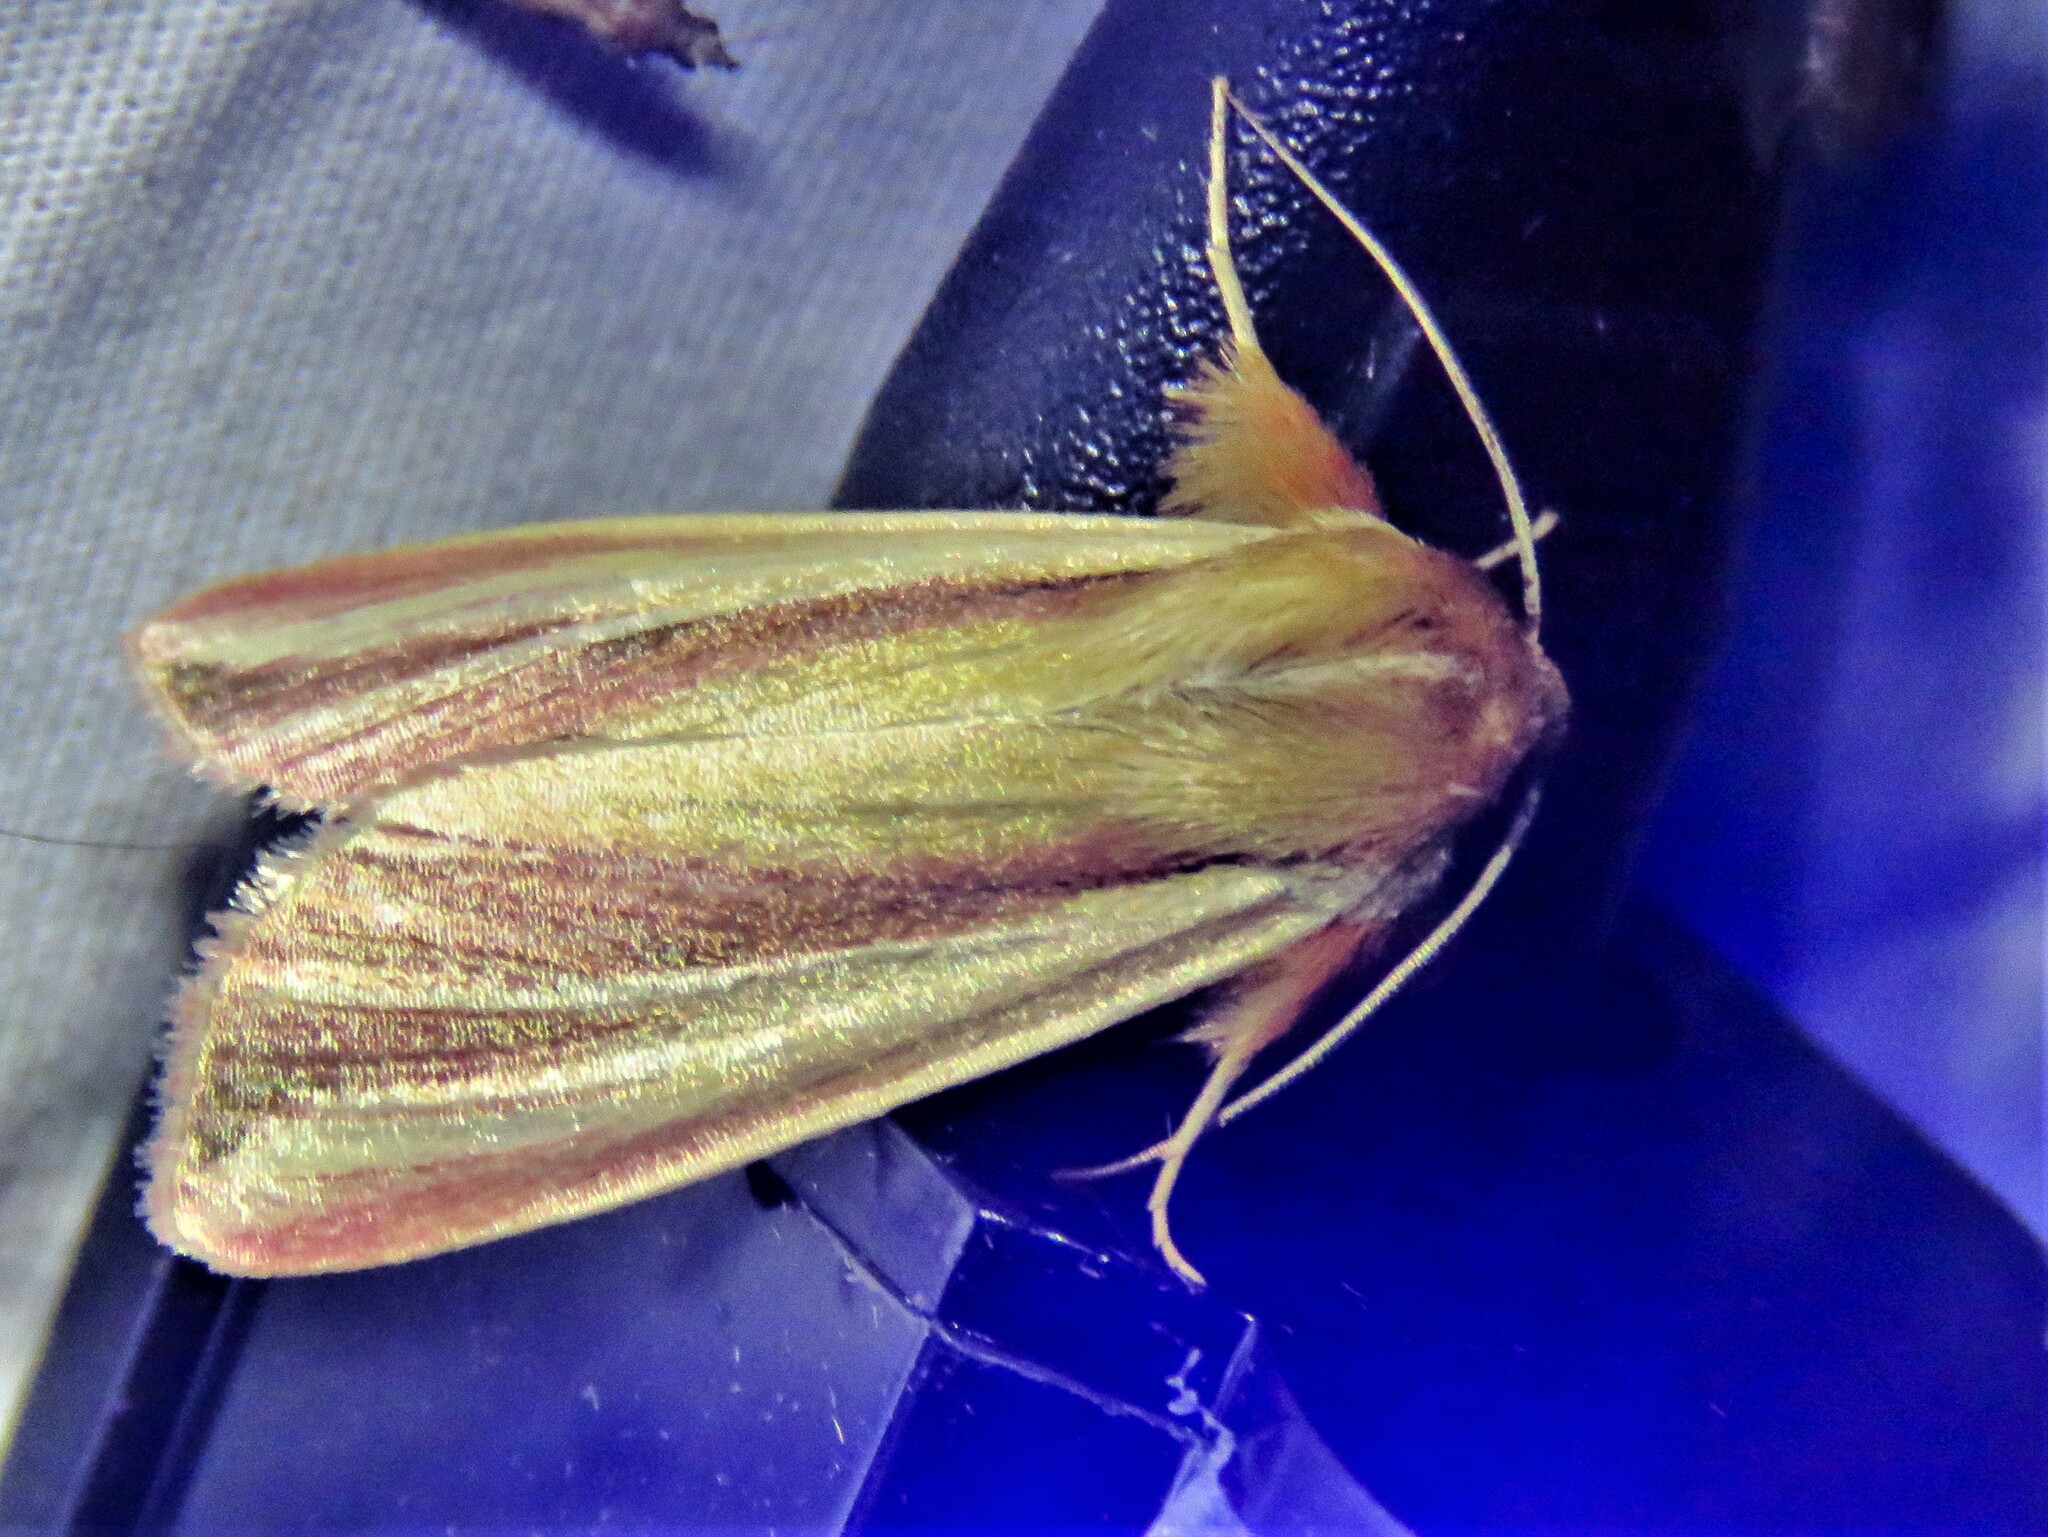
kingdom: Animalia
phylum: Arthropoda
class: Insecta
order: Lepidoptera
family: Noctuidae
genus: Dargida
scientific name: Dargida rubripennis
